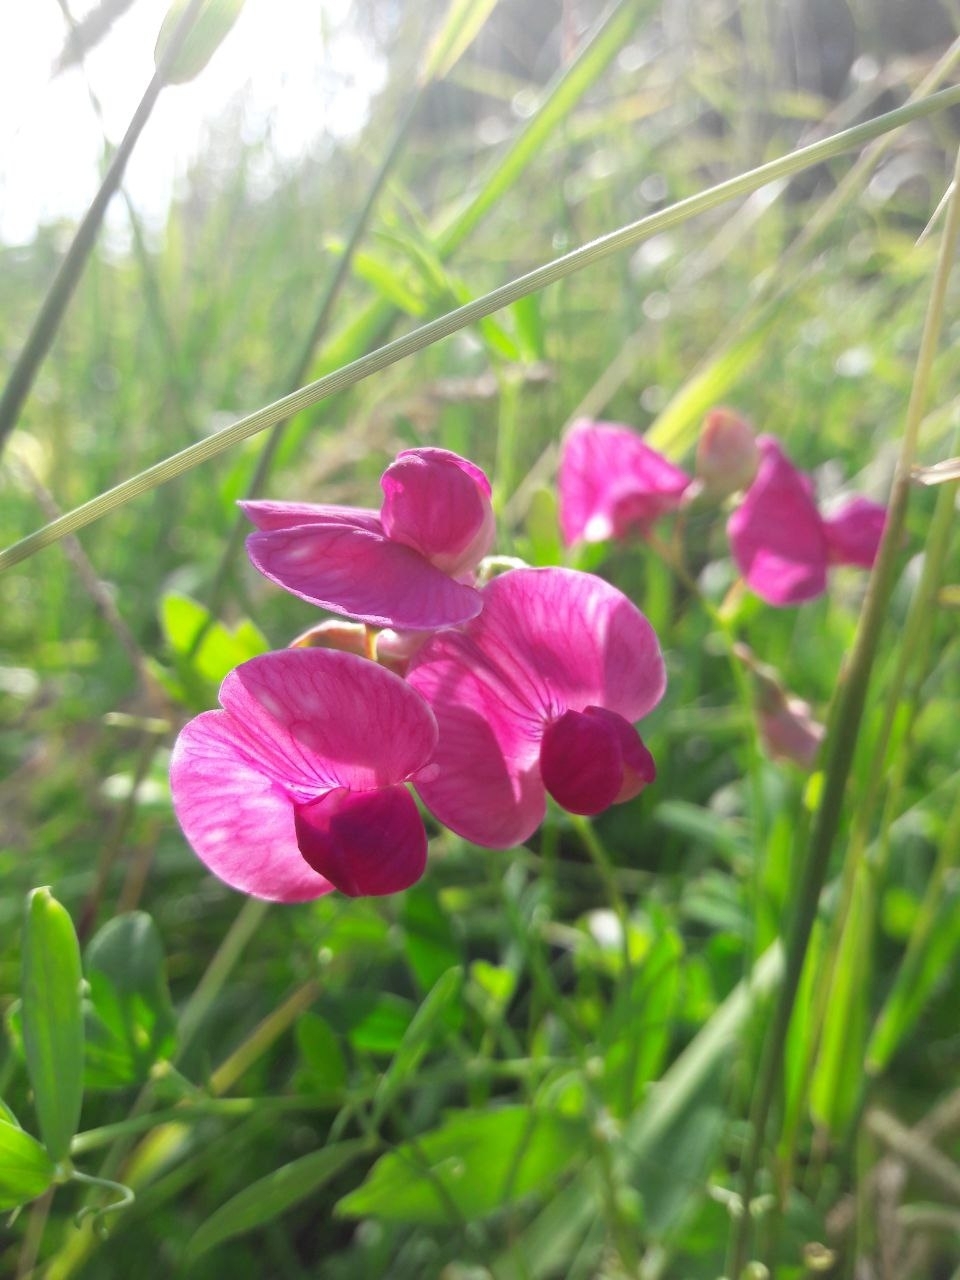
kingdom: Plantae
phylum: Tracheophyta
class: Magnoliopsida
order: Fabales
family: Fabaceae
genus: Lathyrus
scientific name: Lathyrus tuberosus
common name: Tuberous pea
